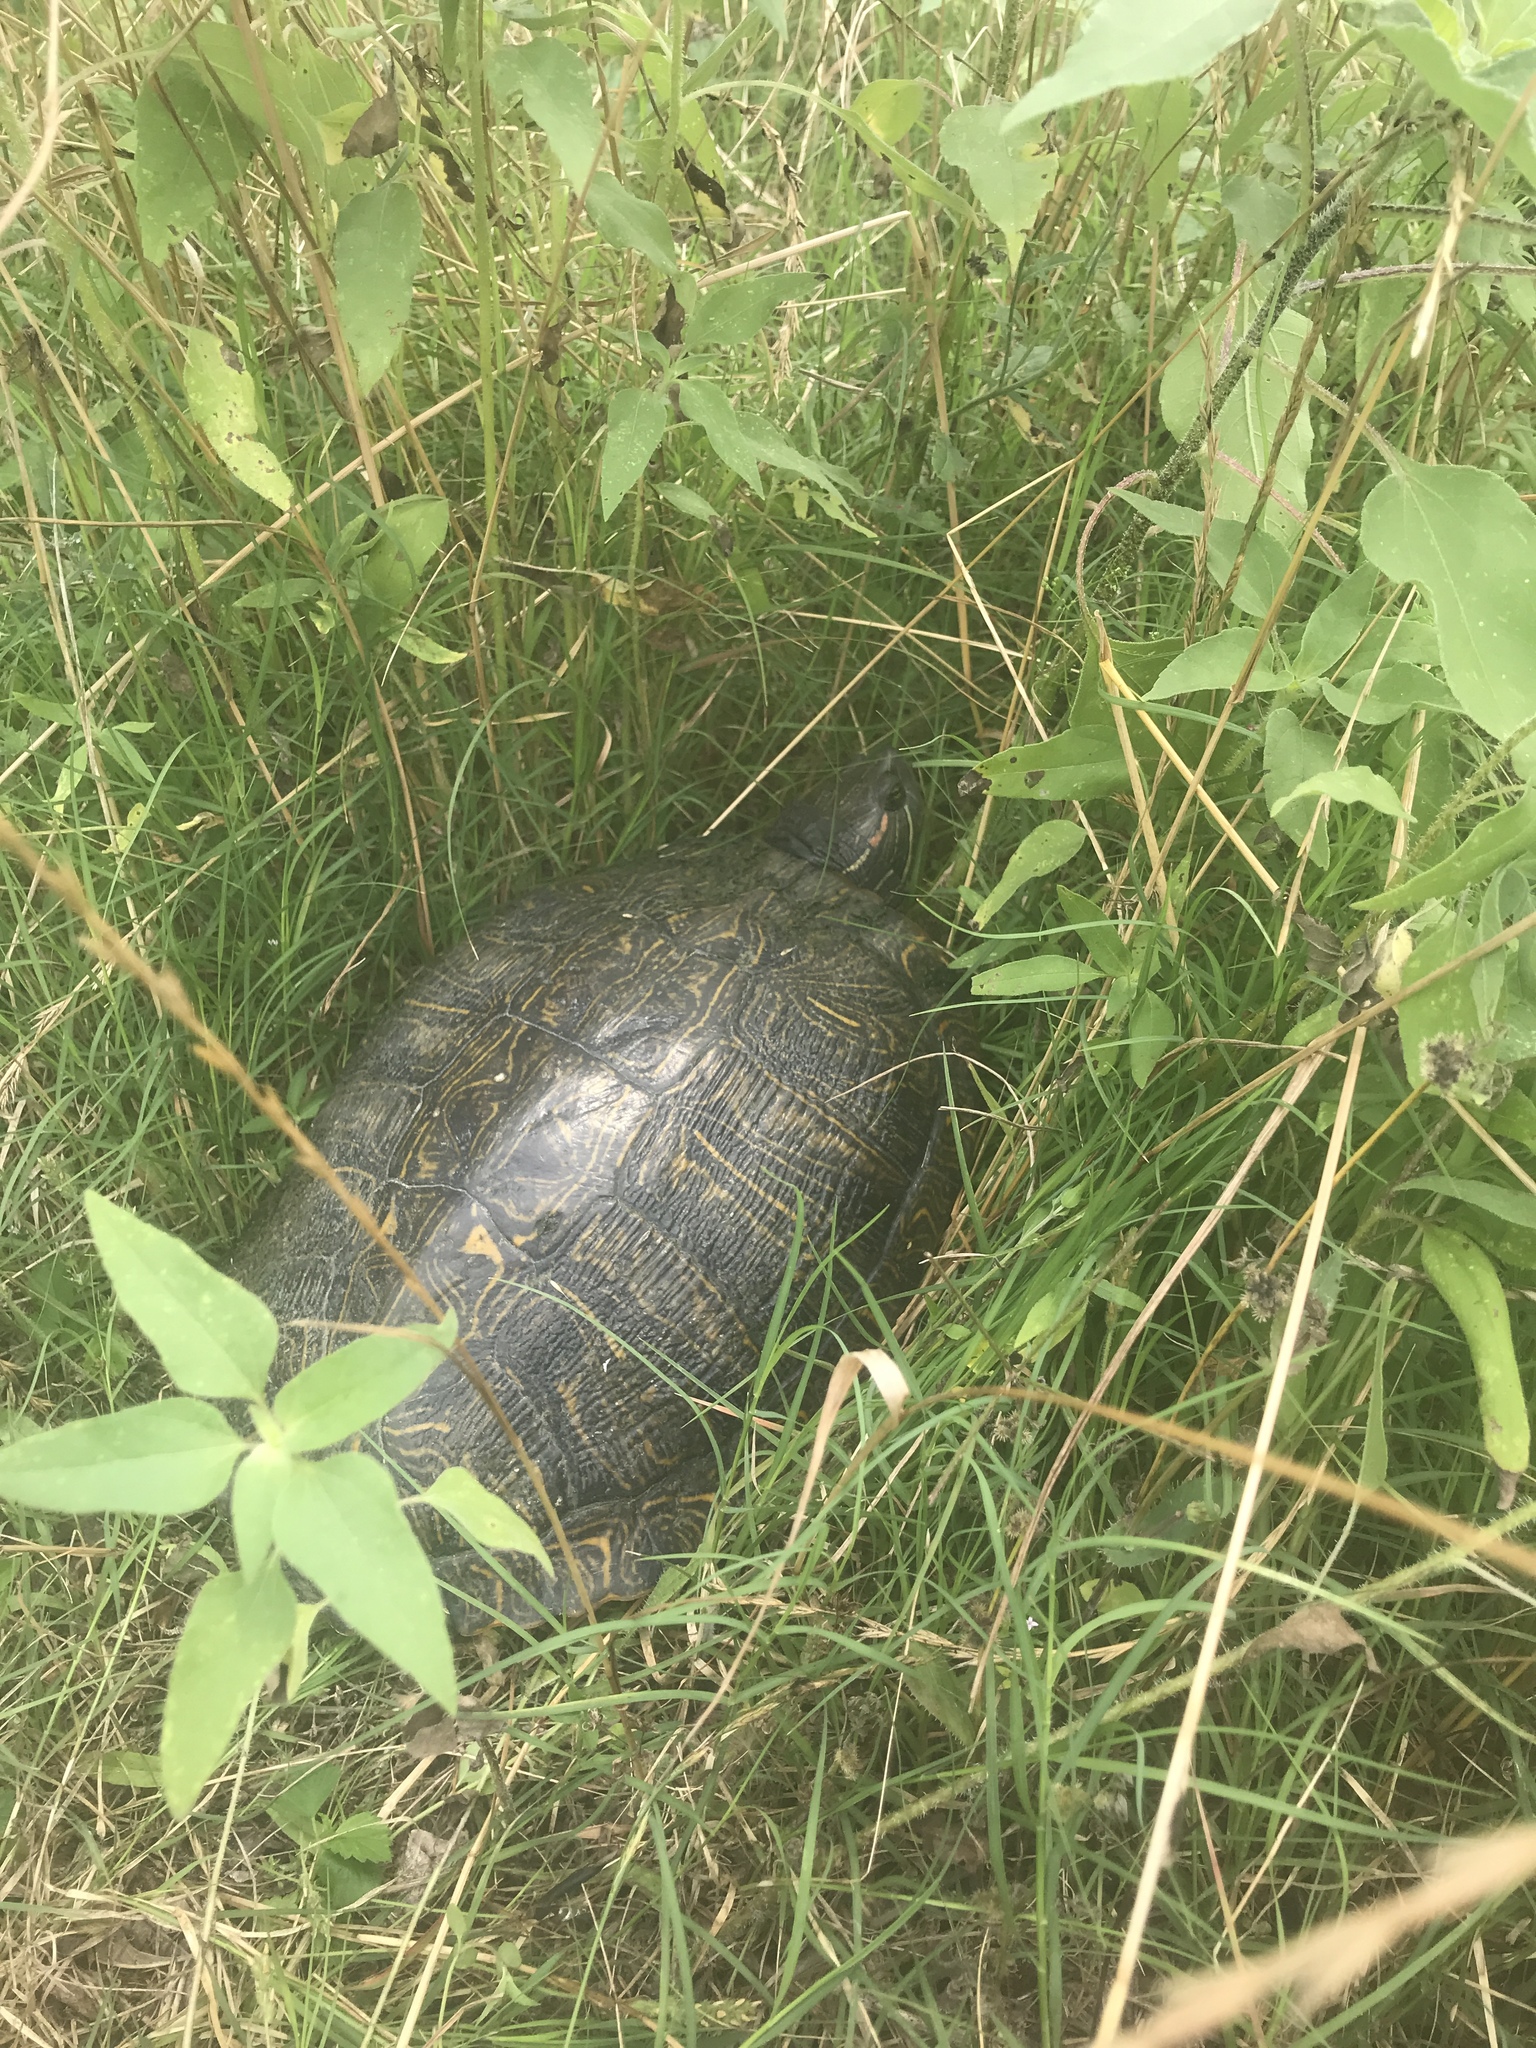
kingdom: Animalia
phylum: Chordata
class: Testudines
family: Emydidae
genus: Trachemys
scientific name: Trachemys scripta
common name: Slider
